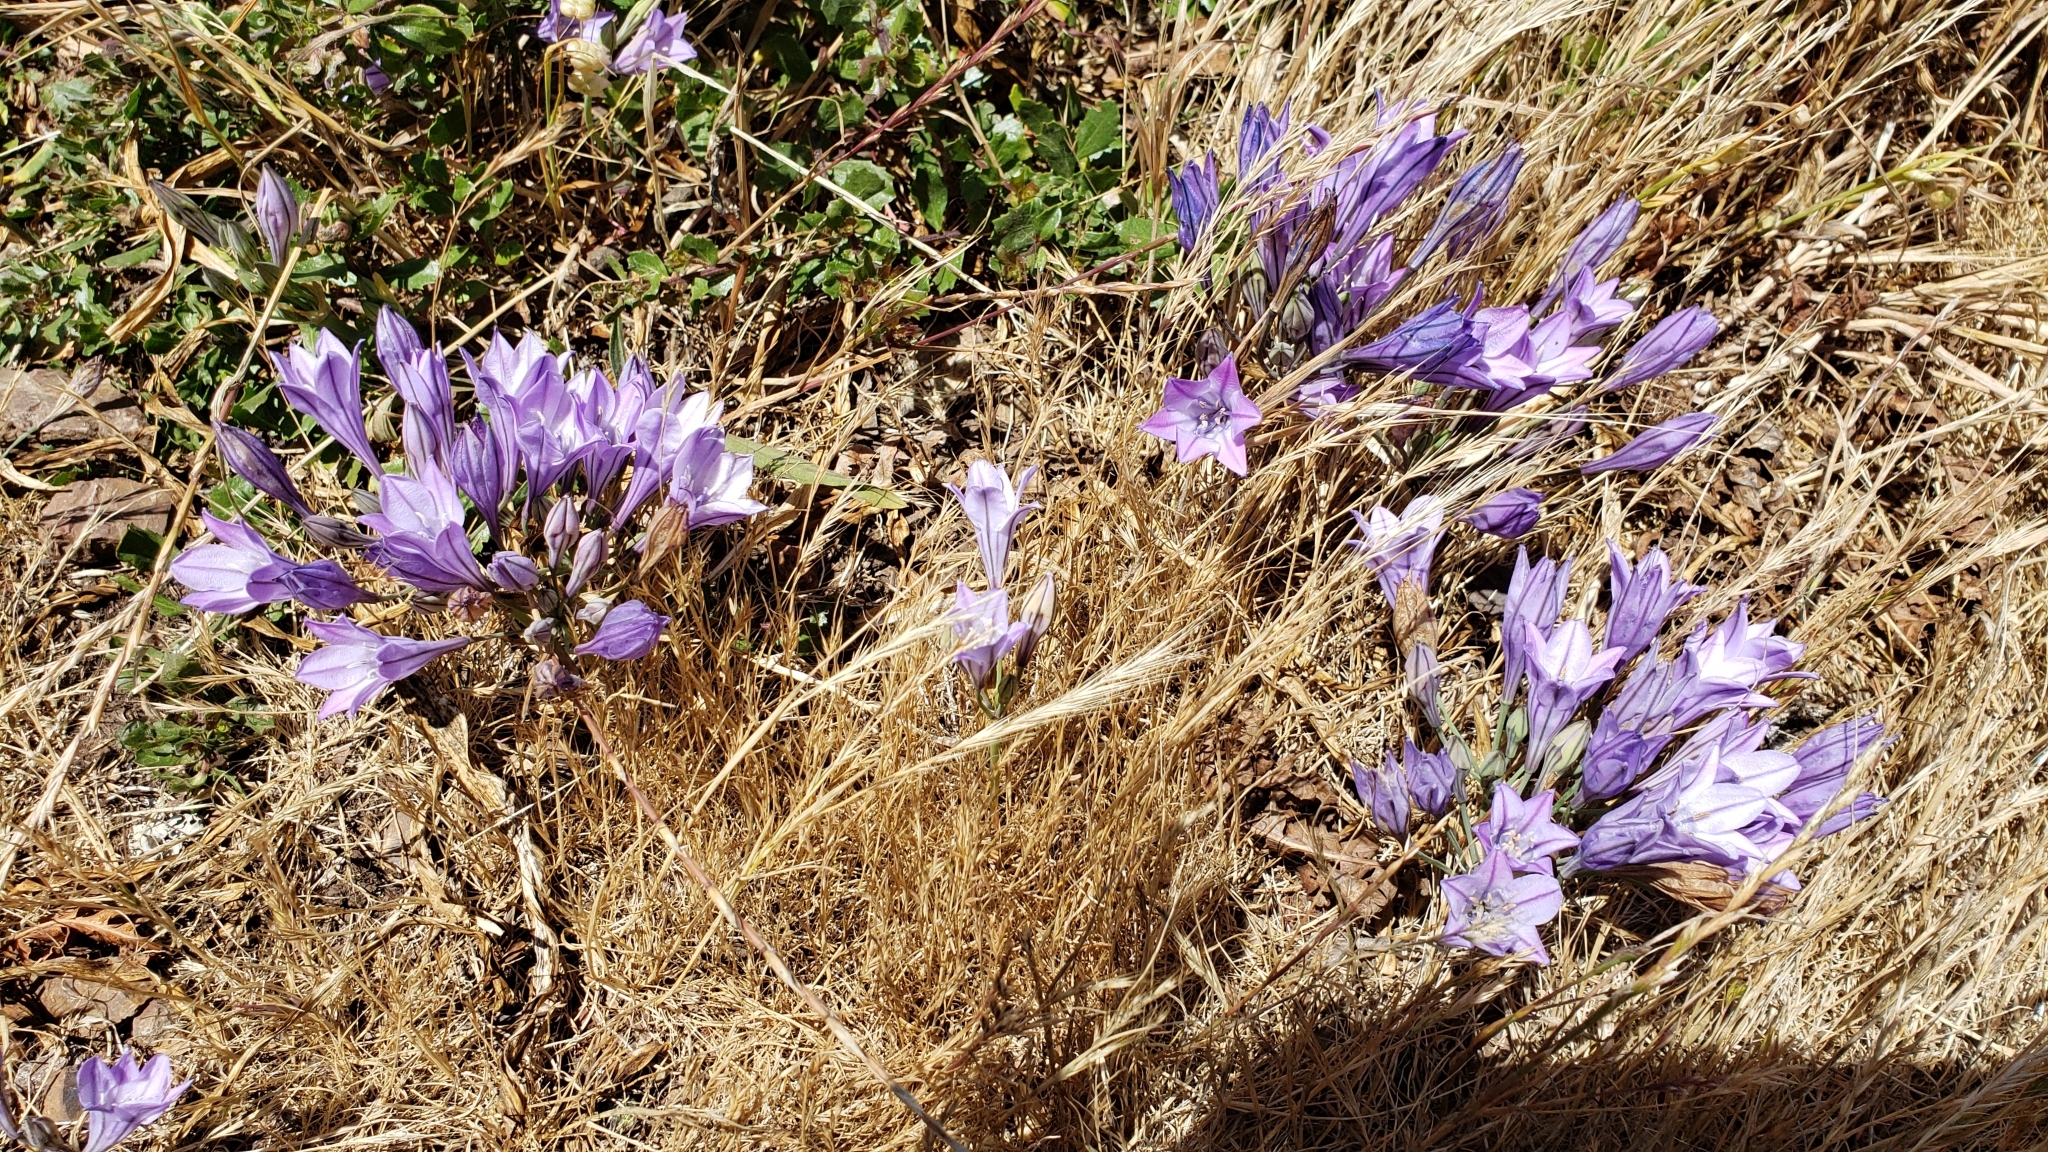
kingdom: Plantae
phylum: Tracheophyta
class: Liliopsida
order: Asparagales
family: Asparagaceae
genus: Triteleia
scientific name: Triteleia laxa
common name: Triplet-lily
